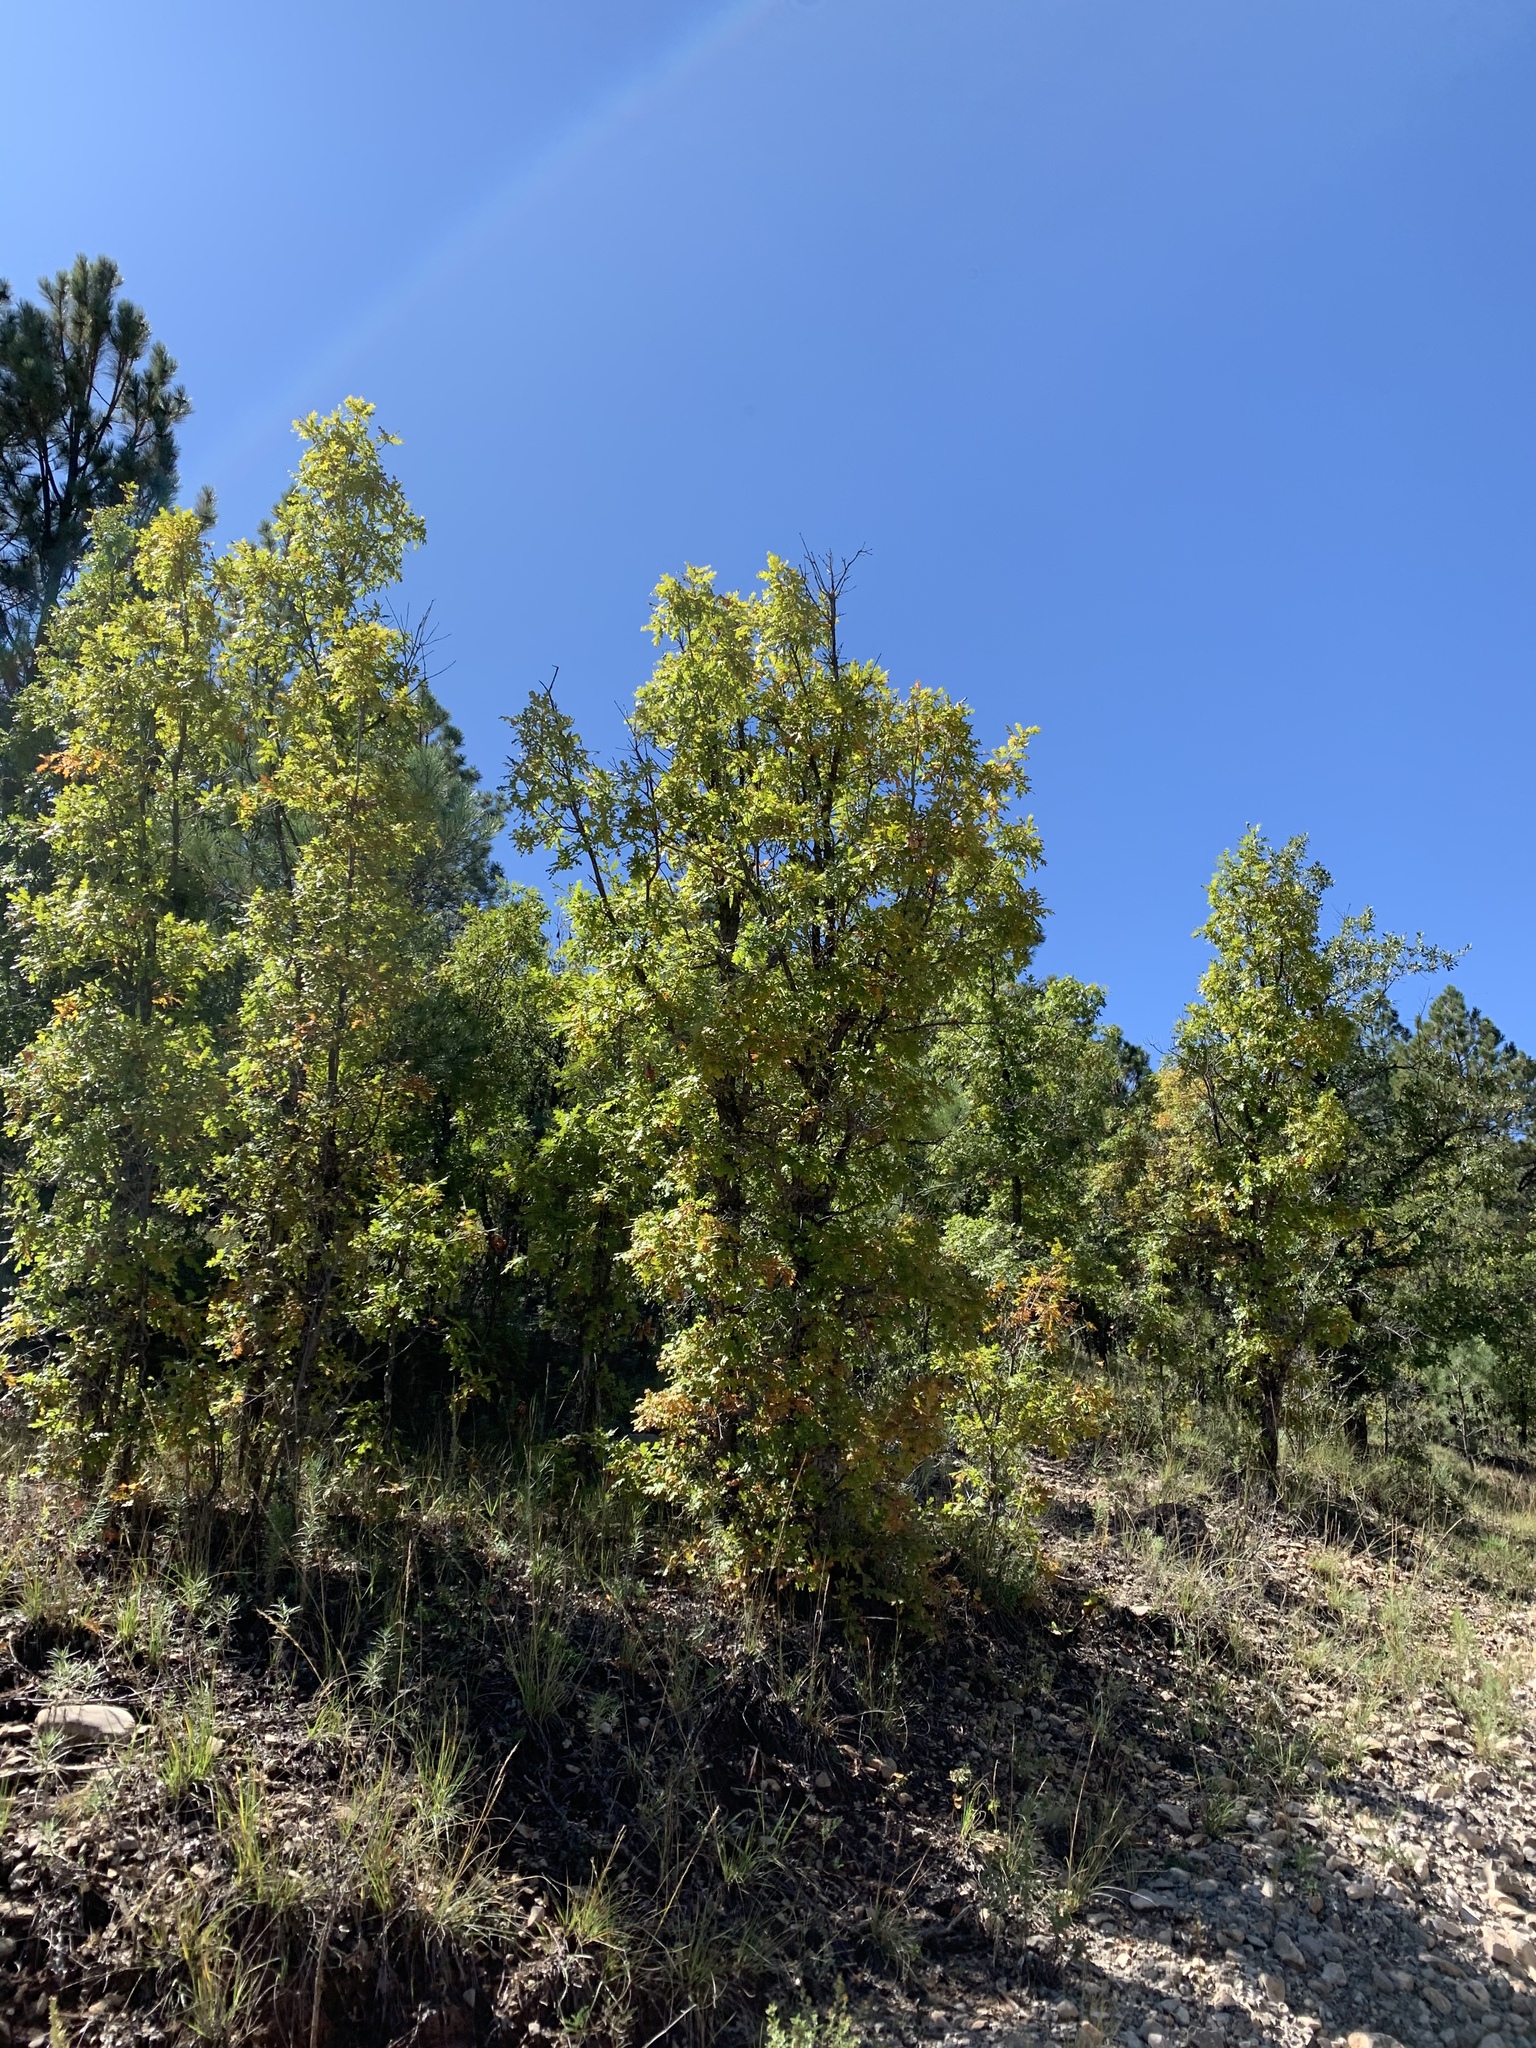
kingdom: Plantae
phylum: Tracheophyta
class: Magnoliopsida
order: Fagales
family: Fagaceae
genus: Quercus
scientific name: Quercus gambelii
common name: Gambel oak
